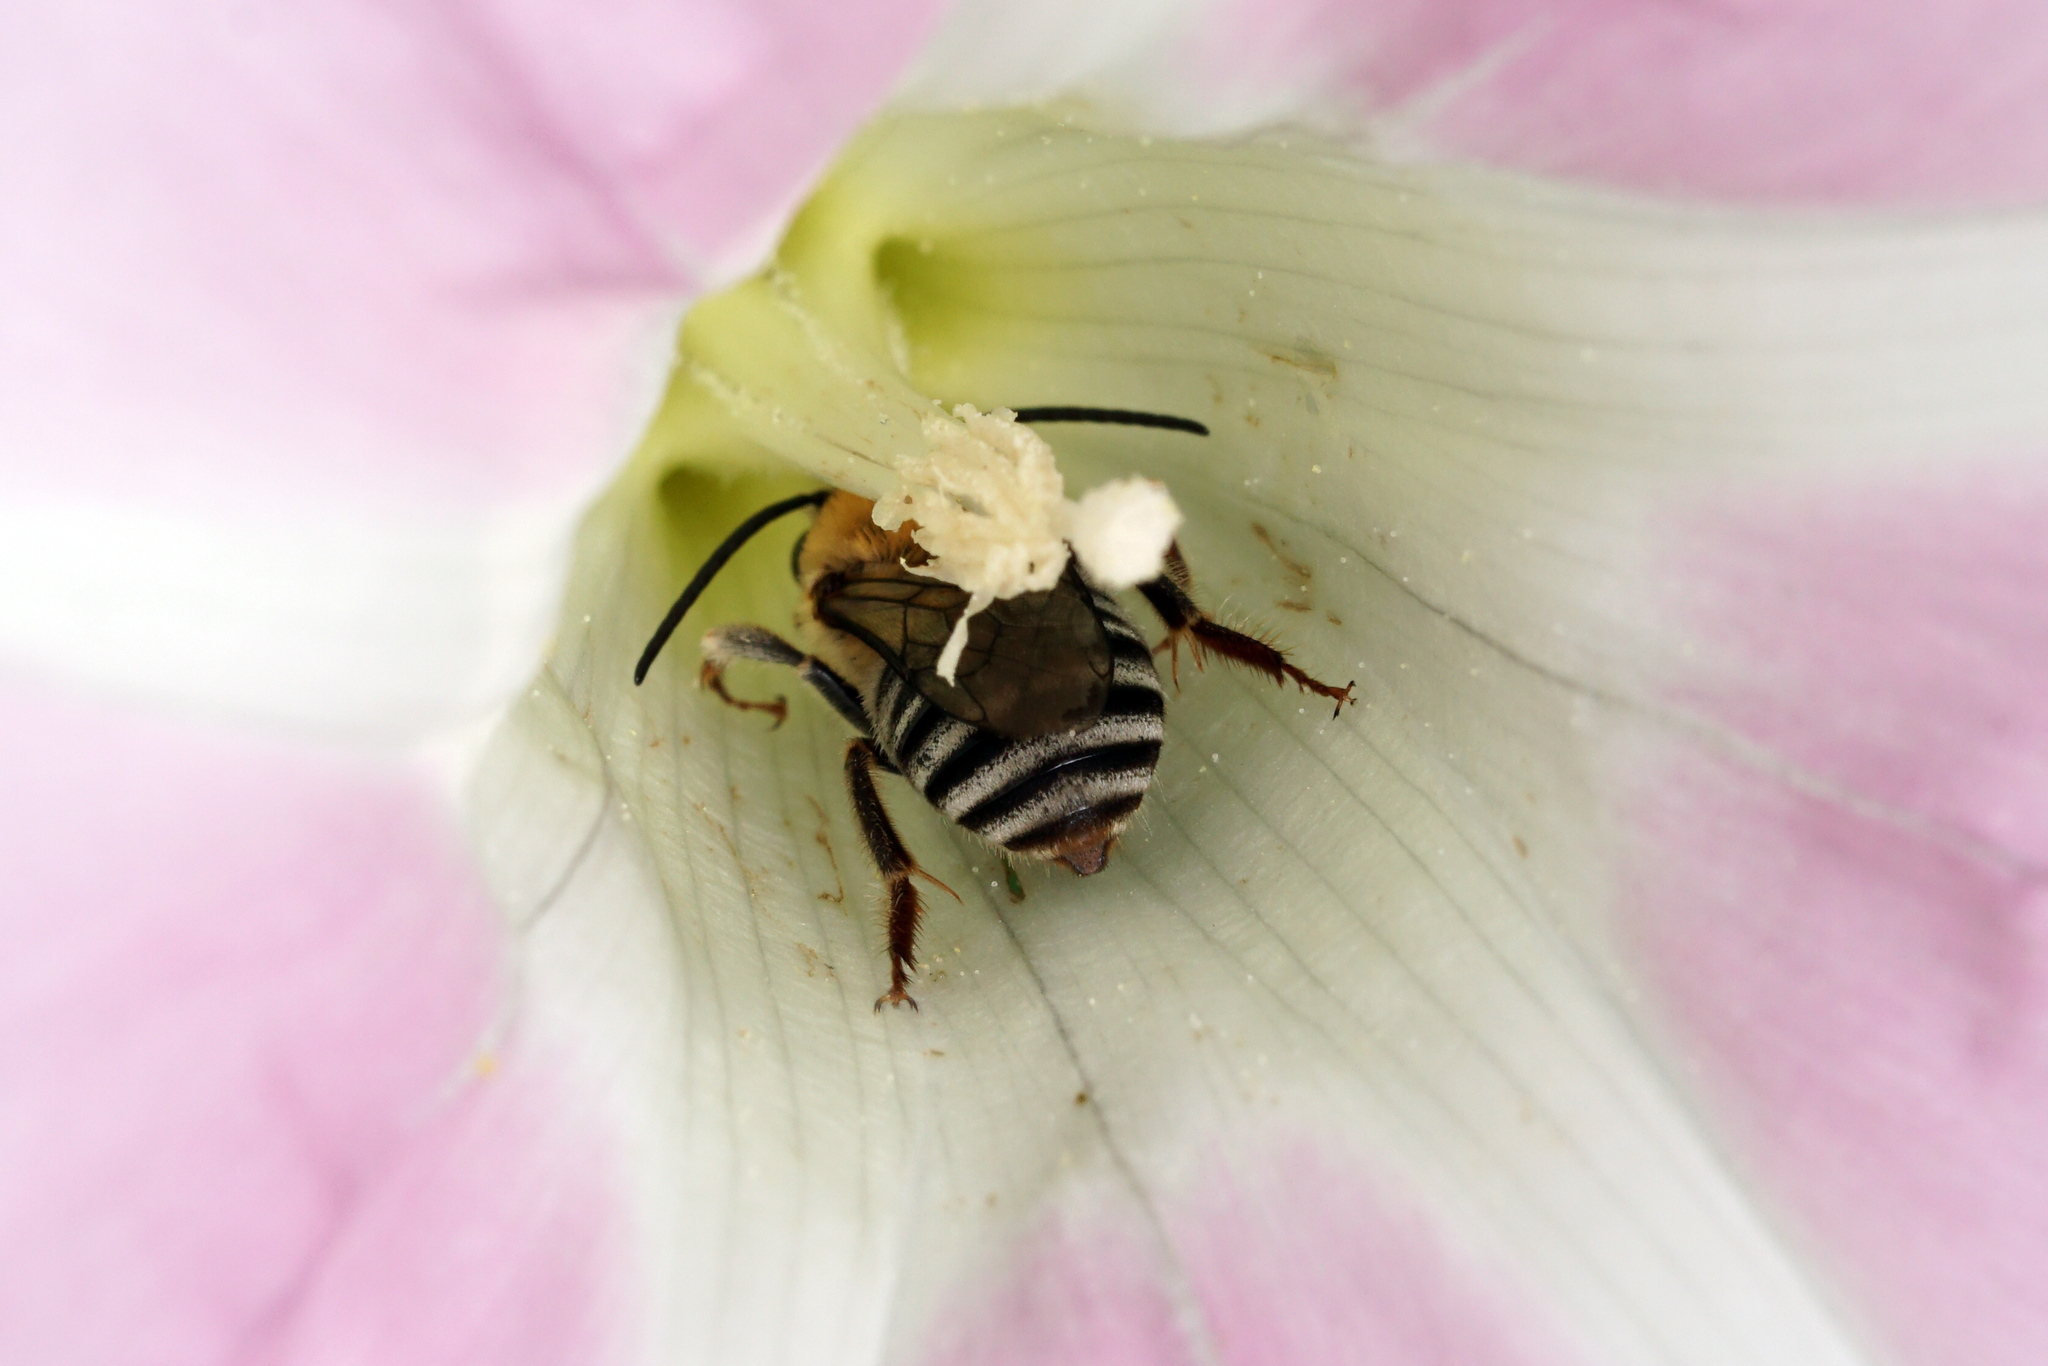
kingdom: Animalia
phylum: Arthropoda
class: Insecta
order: Hymenoptera
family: Apidae
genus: Peponapis
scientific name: Peponapis pruinosa
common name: Pruinose squash bee
